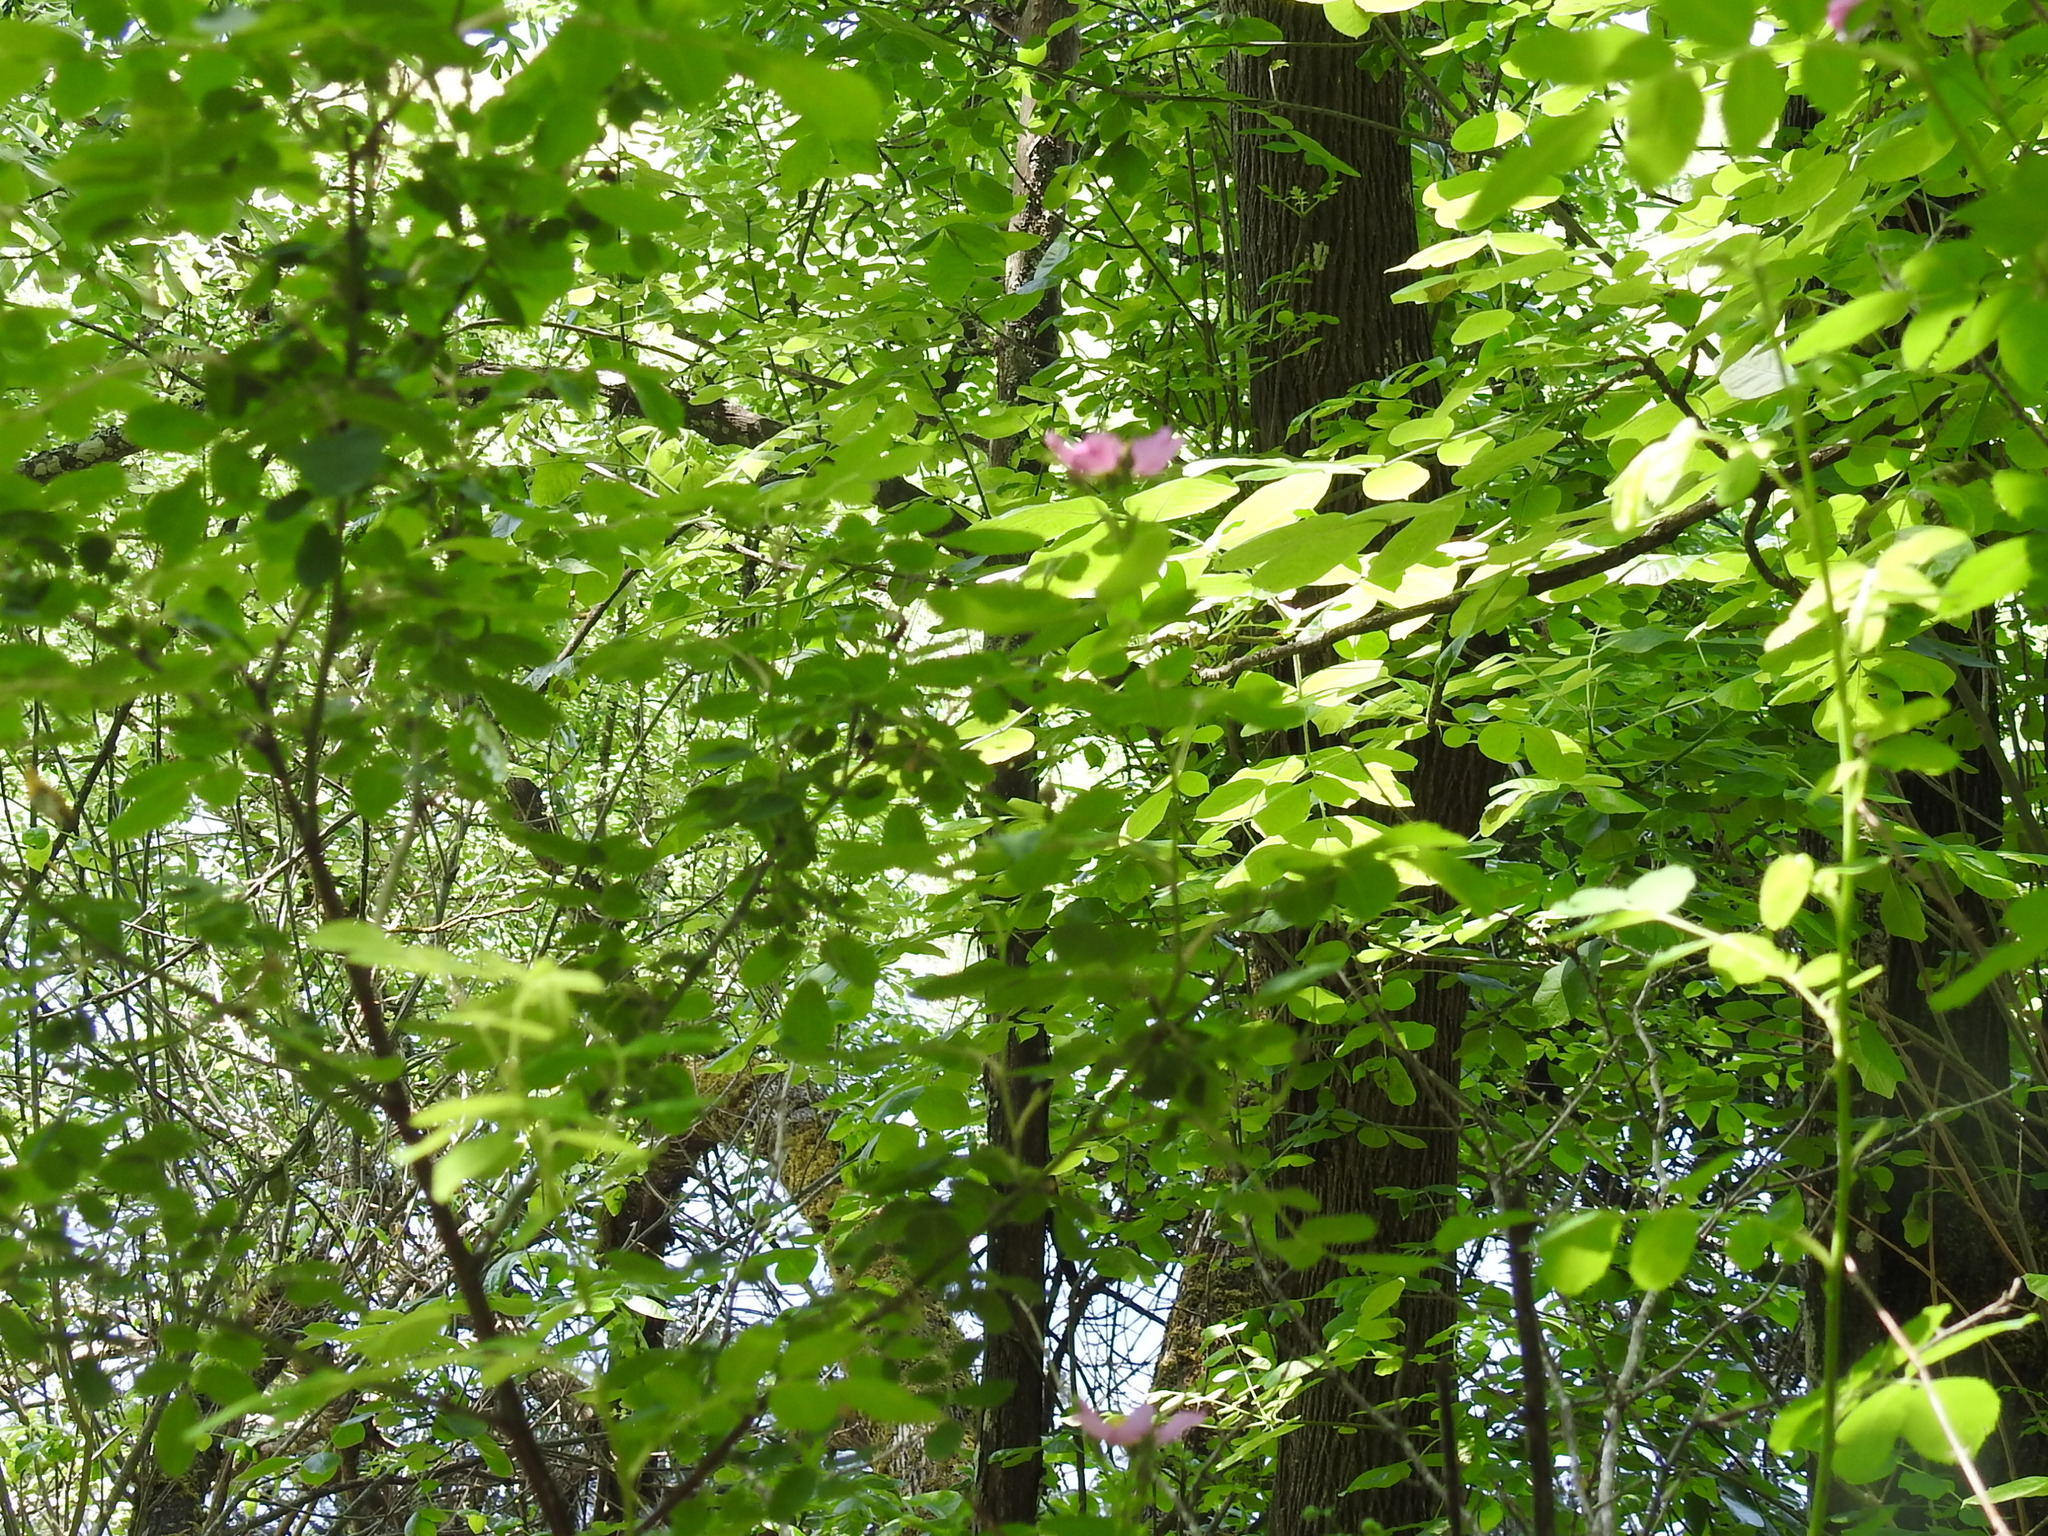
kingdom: Plantae
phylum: Tracheophyta
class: Magnoliopsida
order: Rosales
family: Rosaceae
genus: Rosa
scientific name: Rosa nutkana
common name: Nootka rose
